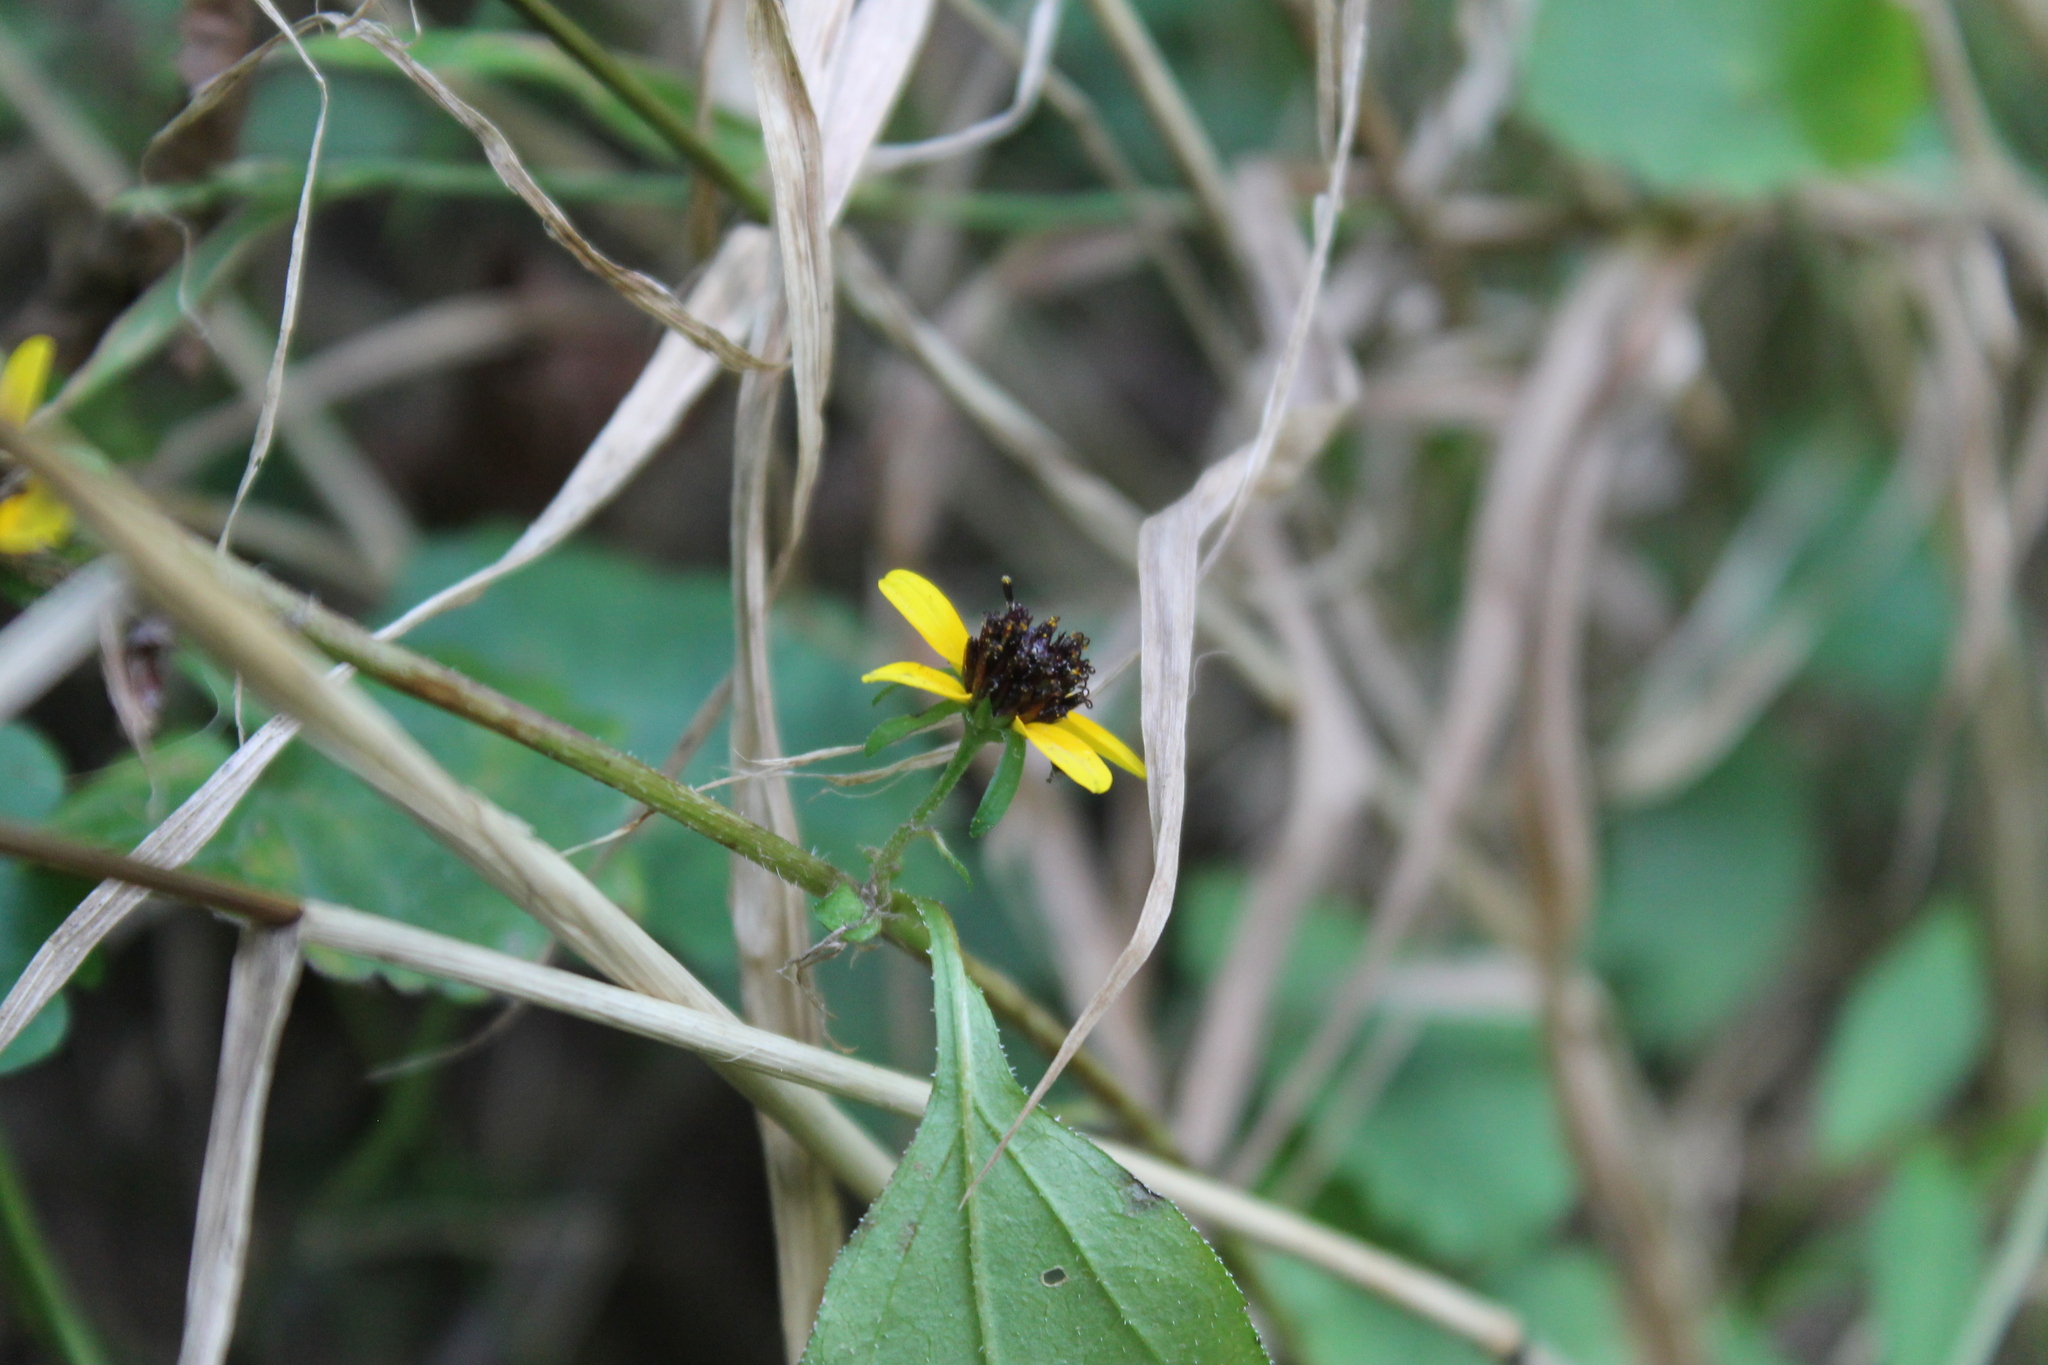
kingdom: Plantae
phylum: Tracheophyta
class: Magnoliopsida
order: Asterales
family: Asteraceae
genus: Rudbeckia
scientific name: Rudbeckia triloba
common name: Thin-leaved coneflower
